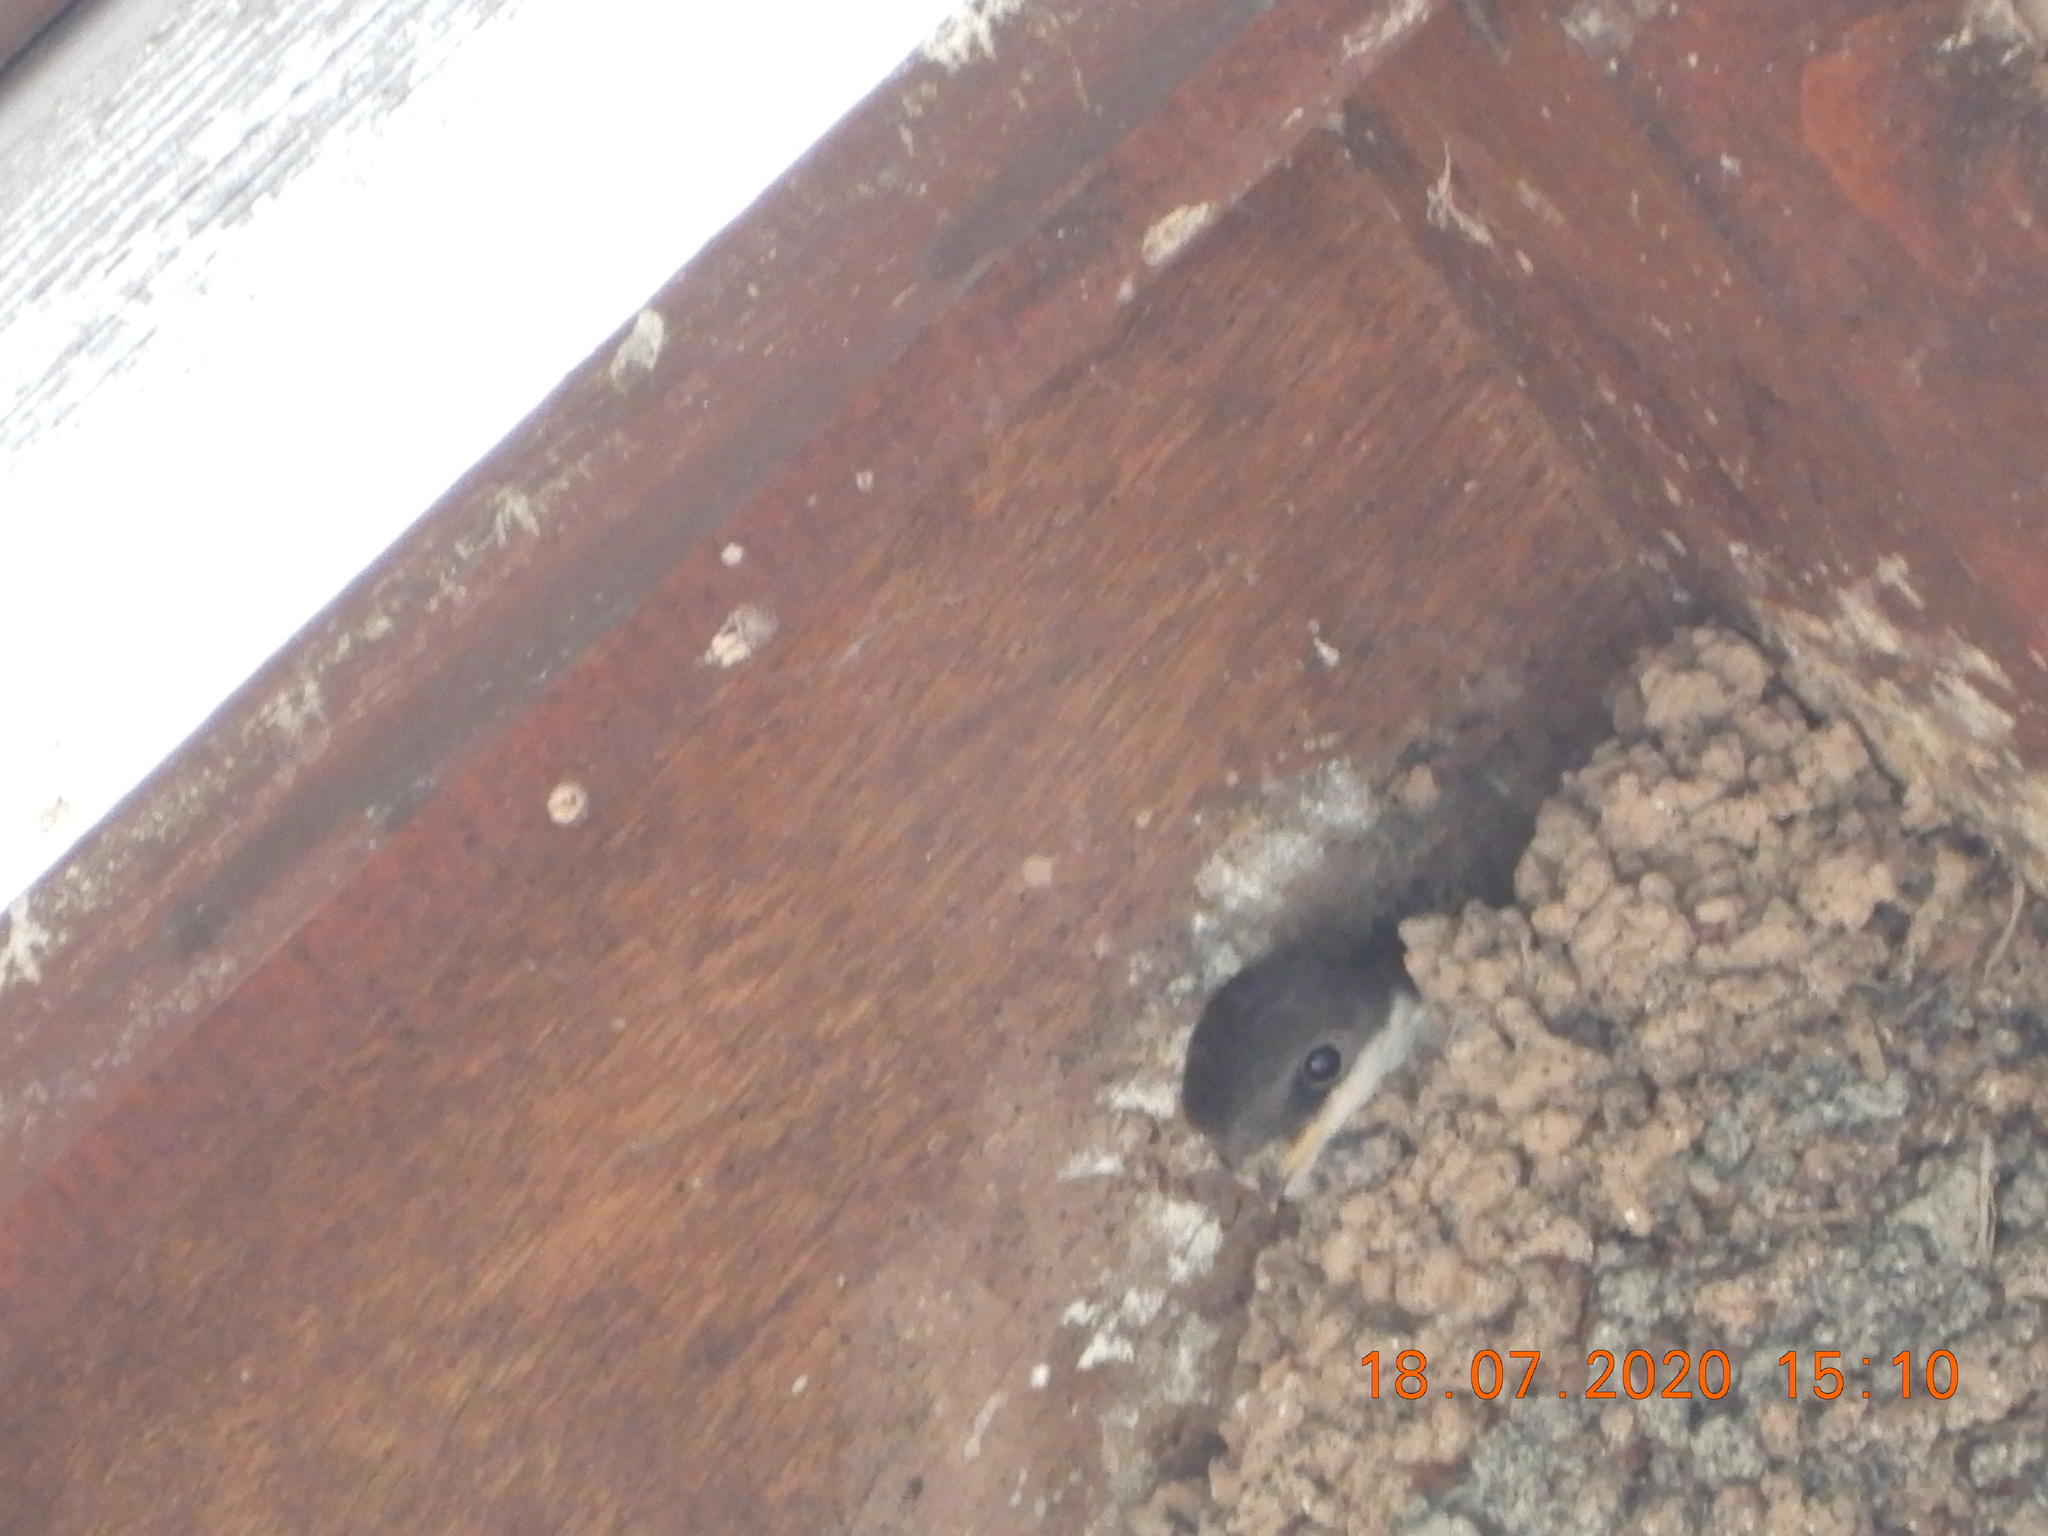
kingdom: Animalia
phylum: Chordata
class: Aves
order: Passeriformes
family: Hirundinidae
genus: Delichon
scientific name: Delichon urbicum
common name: Common house martin
